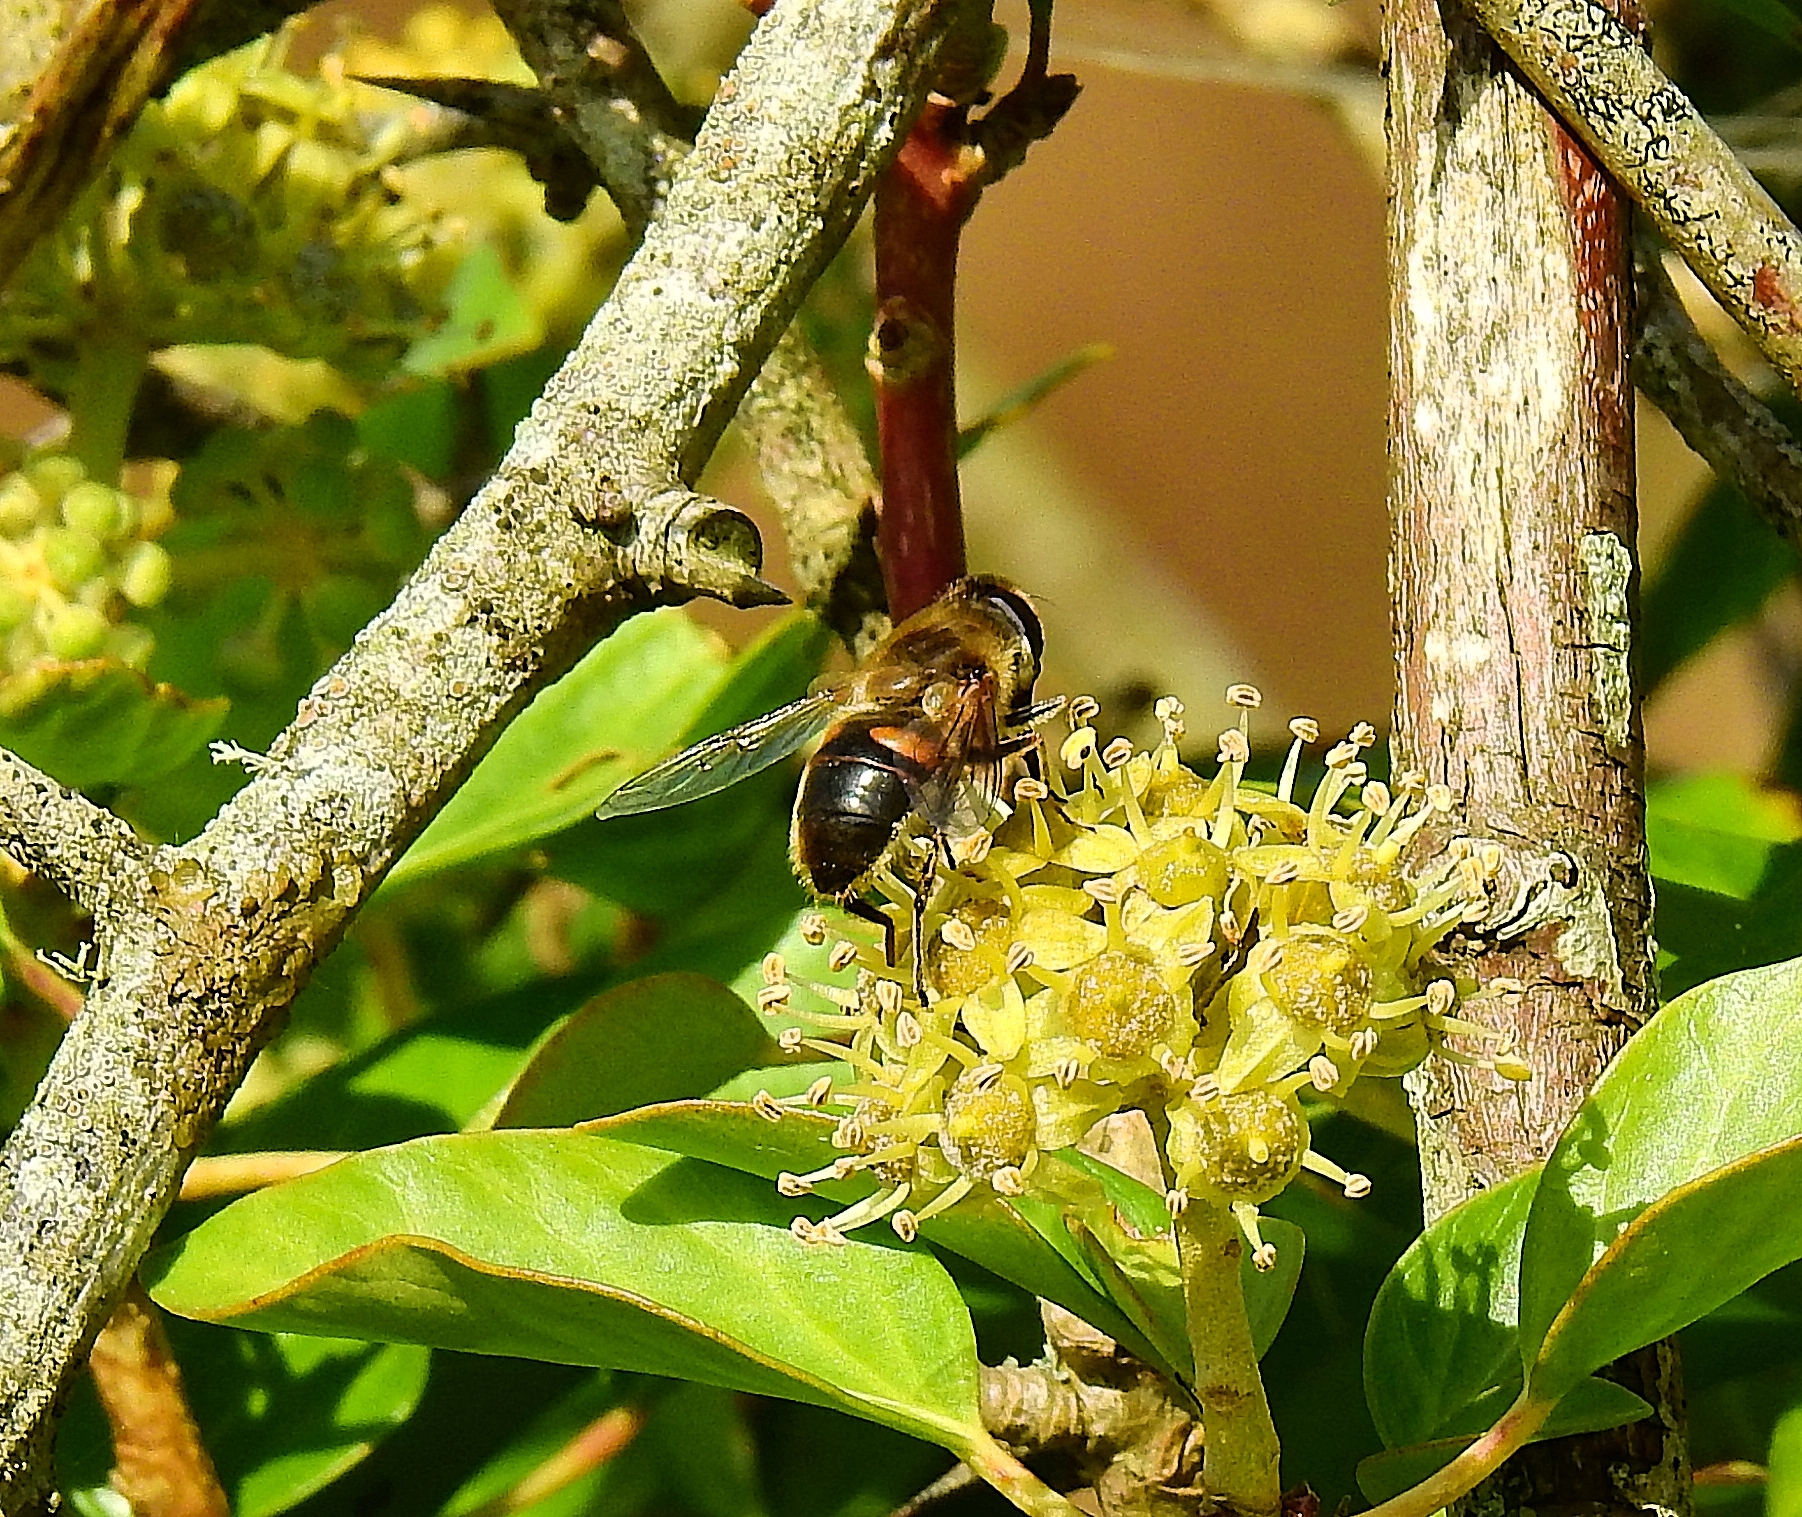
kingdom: Animalia
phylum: Arthropoda
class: Insecta
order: Diptera
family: Syrphidae
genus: Eristalis
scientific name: Eristalis tenax
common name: Drone fly
